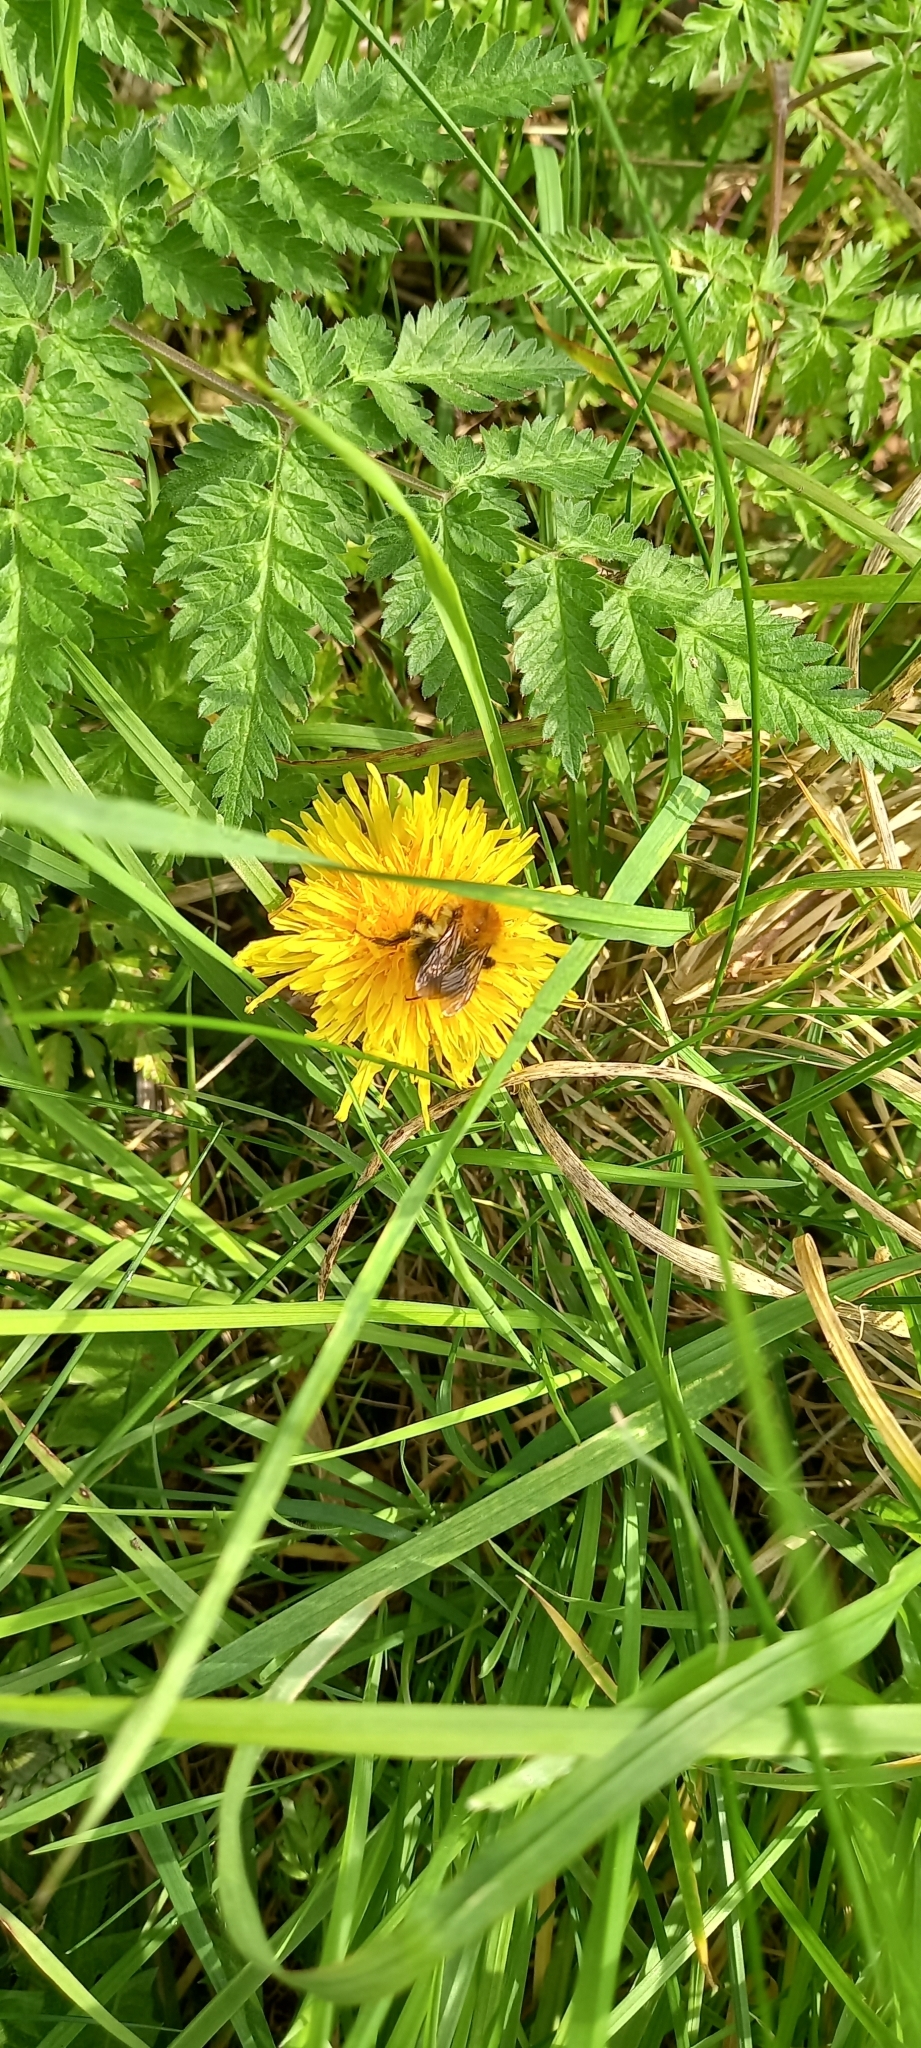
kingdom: Animalia
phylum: Arthropoda
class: Insecta
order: Hymenoptera
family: Apidae
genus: Bombus
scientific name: Bombus pascuorum
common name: Common carder bee
